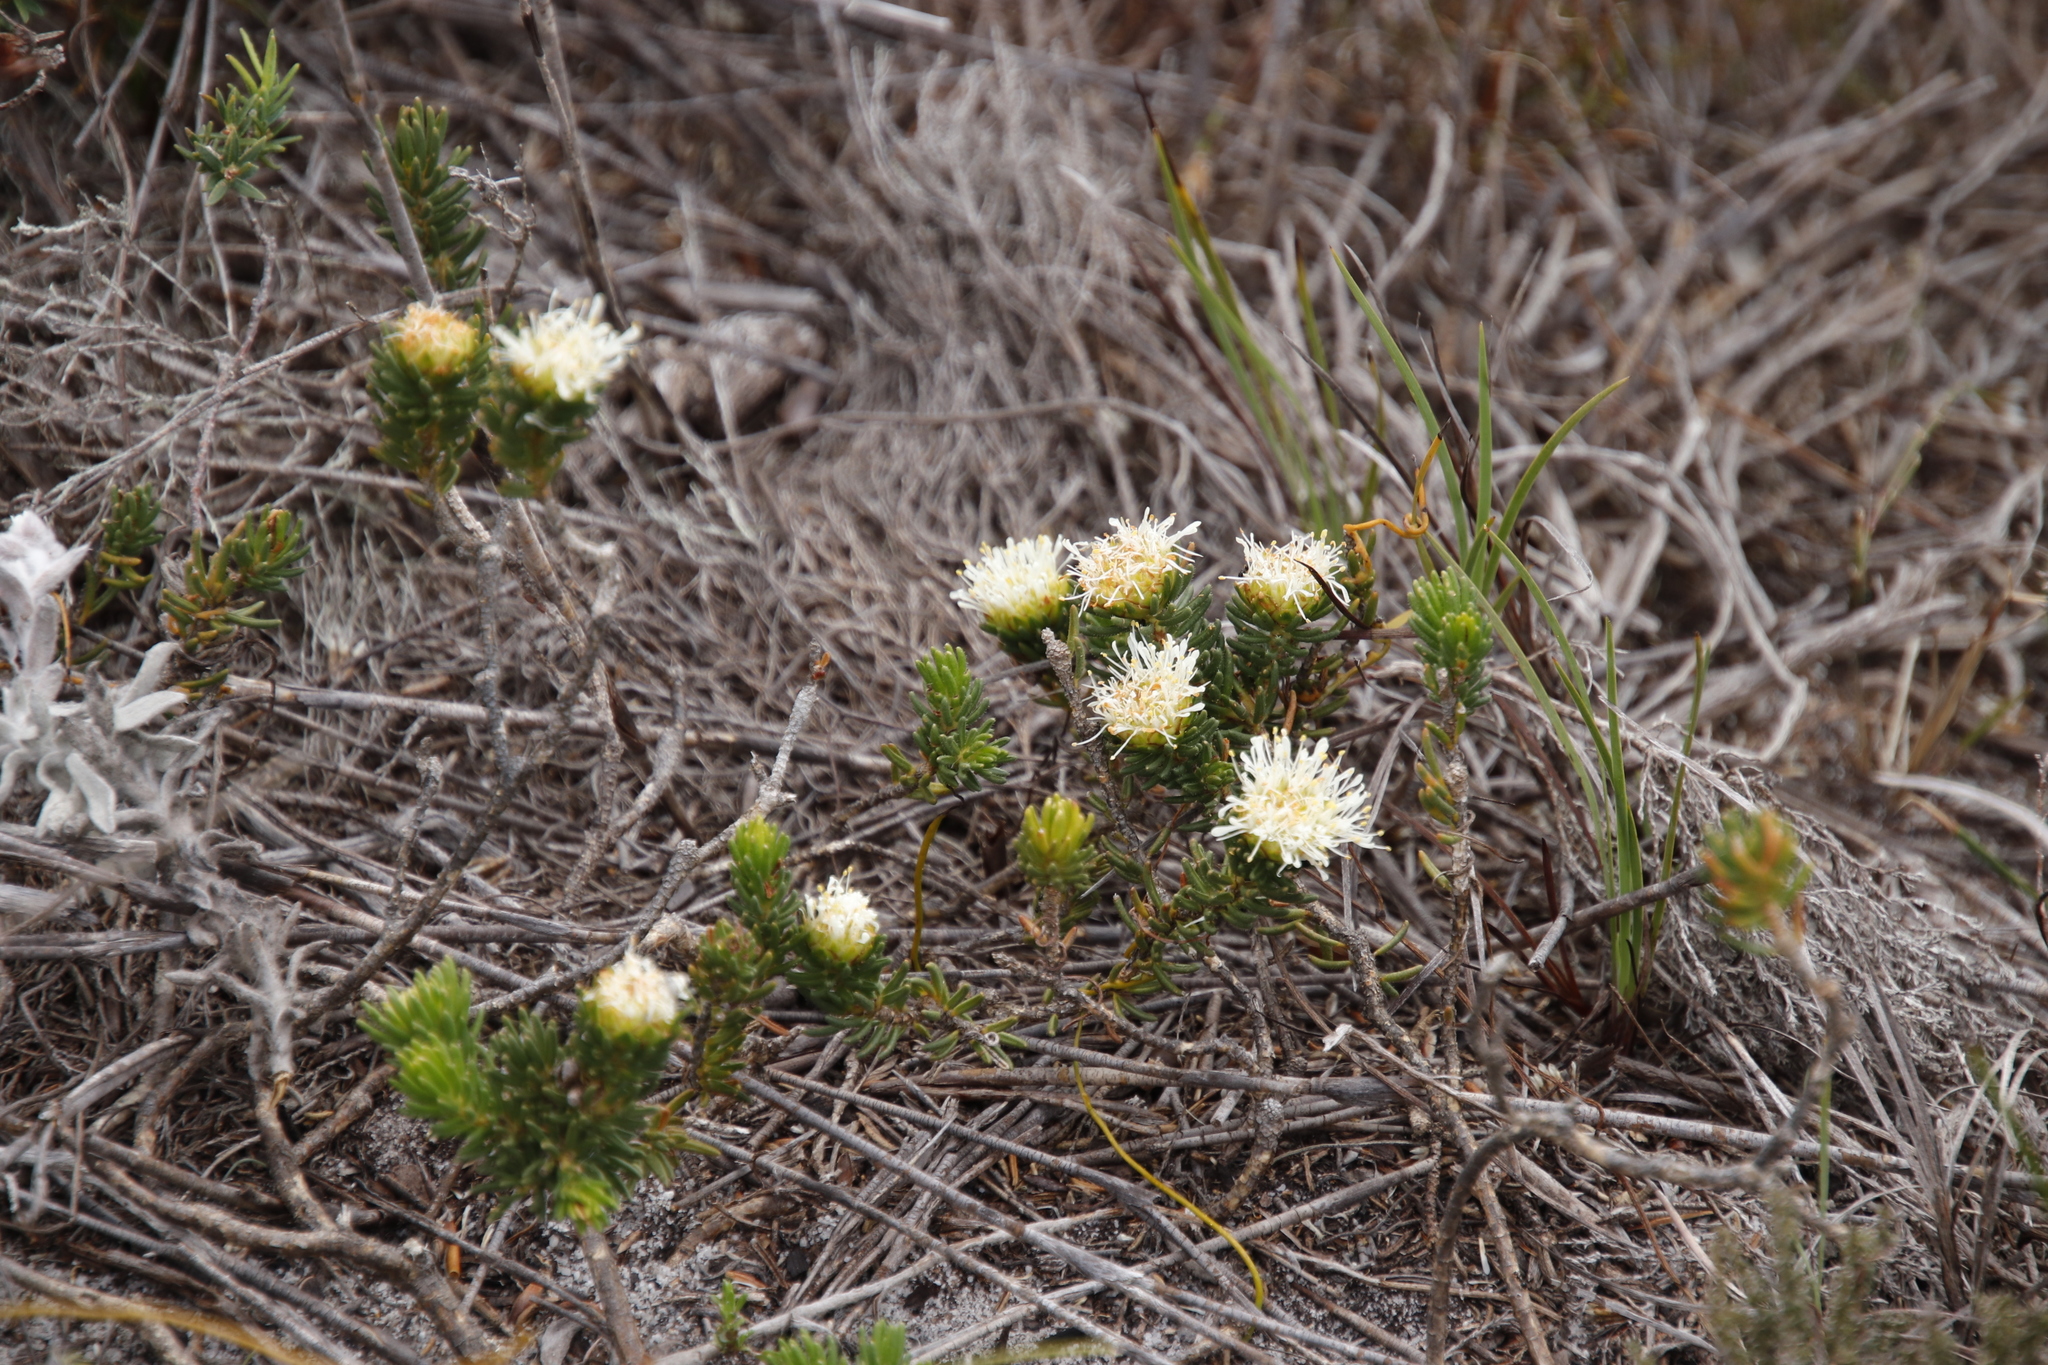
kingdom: Plantae
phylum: Tracheophyta
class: Magnoliopsida
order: Sapindales
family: Rutaceae
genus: Agathosma
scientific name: Agathosma hookeri
